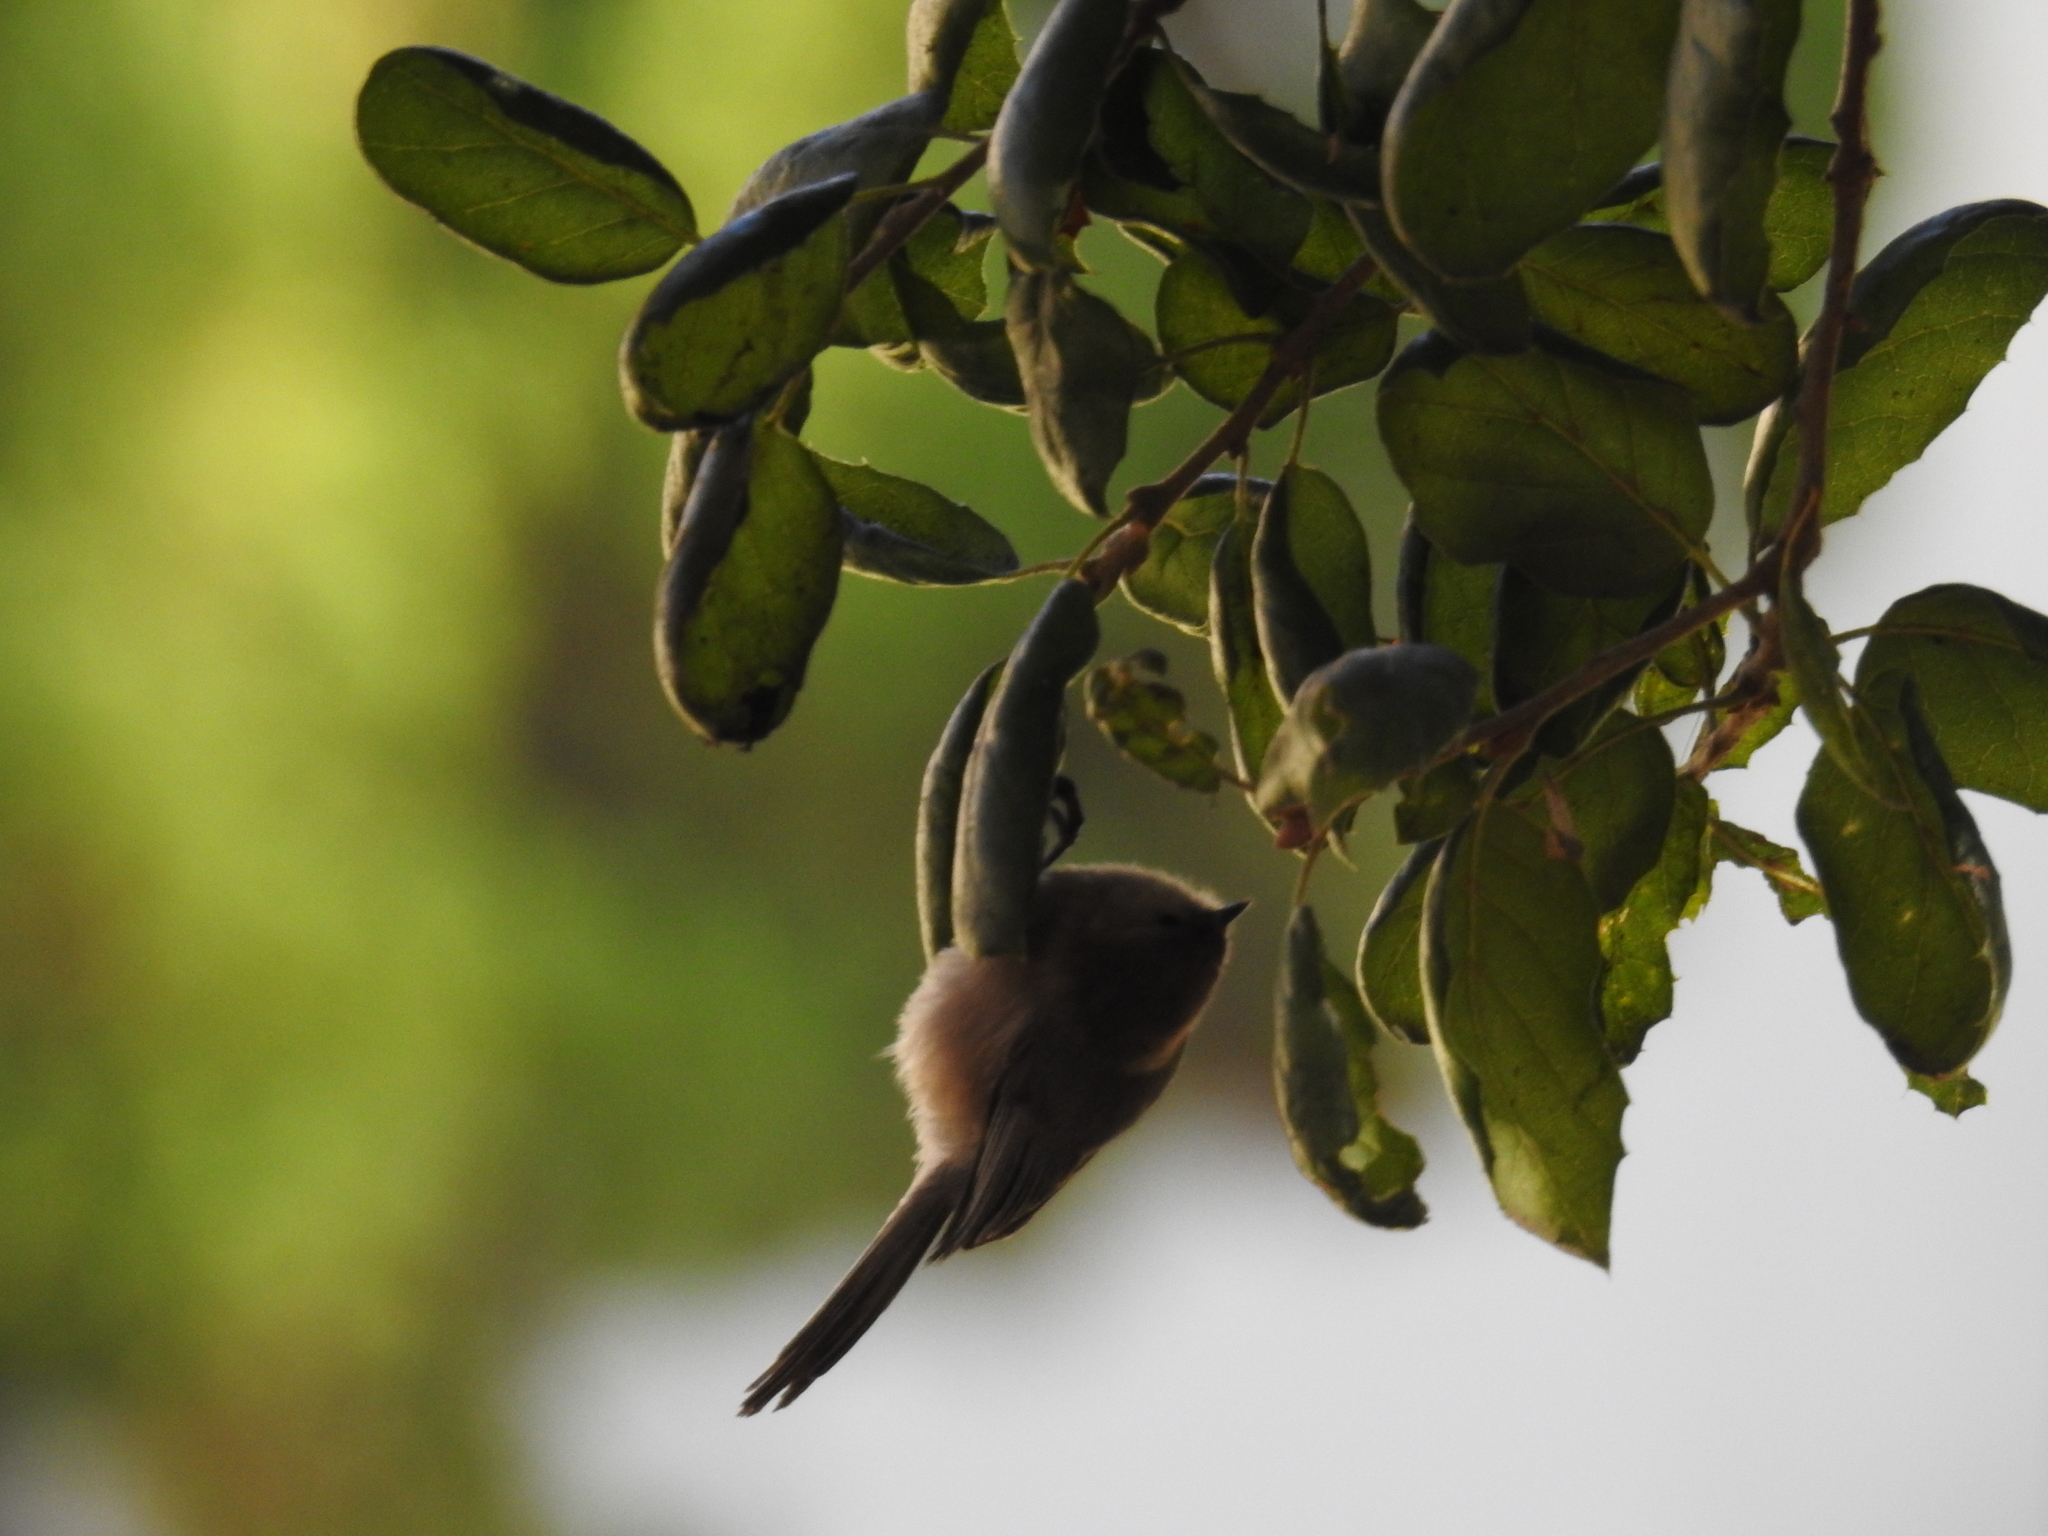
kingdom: Animalia
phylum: Chordata
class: Aves
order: Passeriformes
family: Aegithalidae
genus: Psaltriparus
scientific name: Psaltriparus minimus
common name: American bushtit
